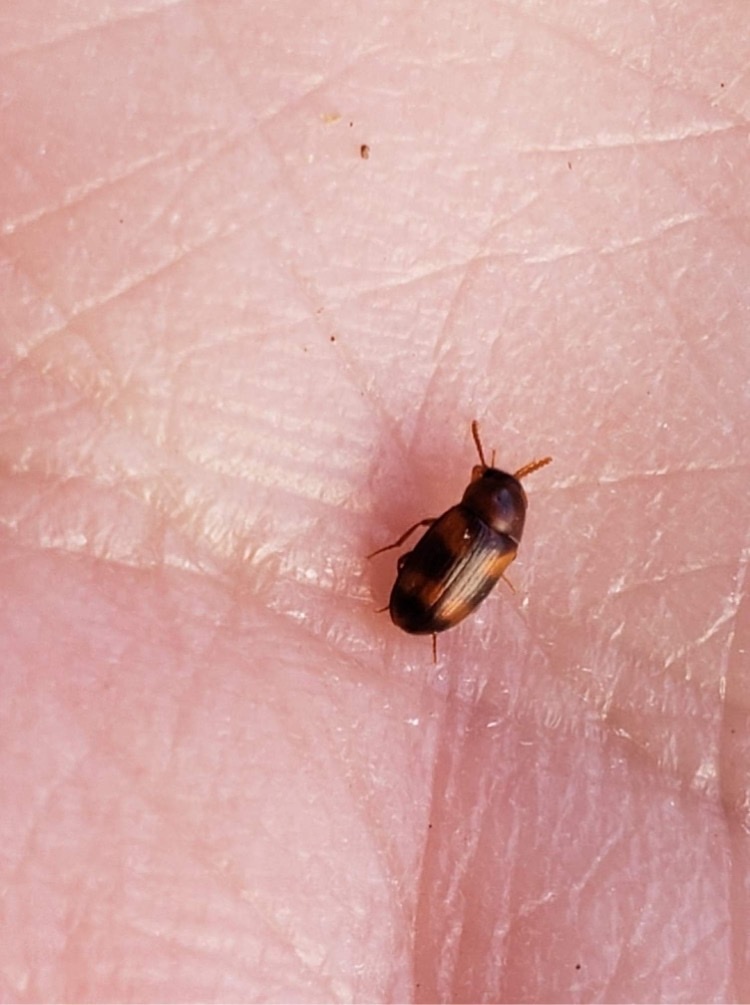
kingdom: Animalia
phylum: Arthropoda
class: Insecta
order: Coleoptera
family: Tenebrionidae
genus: Alphitophagus
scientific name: Alphitophagus bifasciatus
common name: Two-banded fungus beetle
